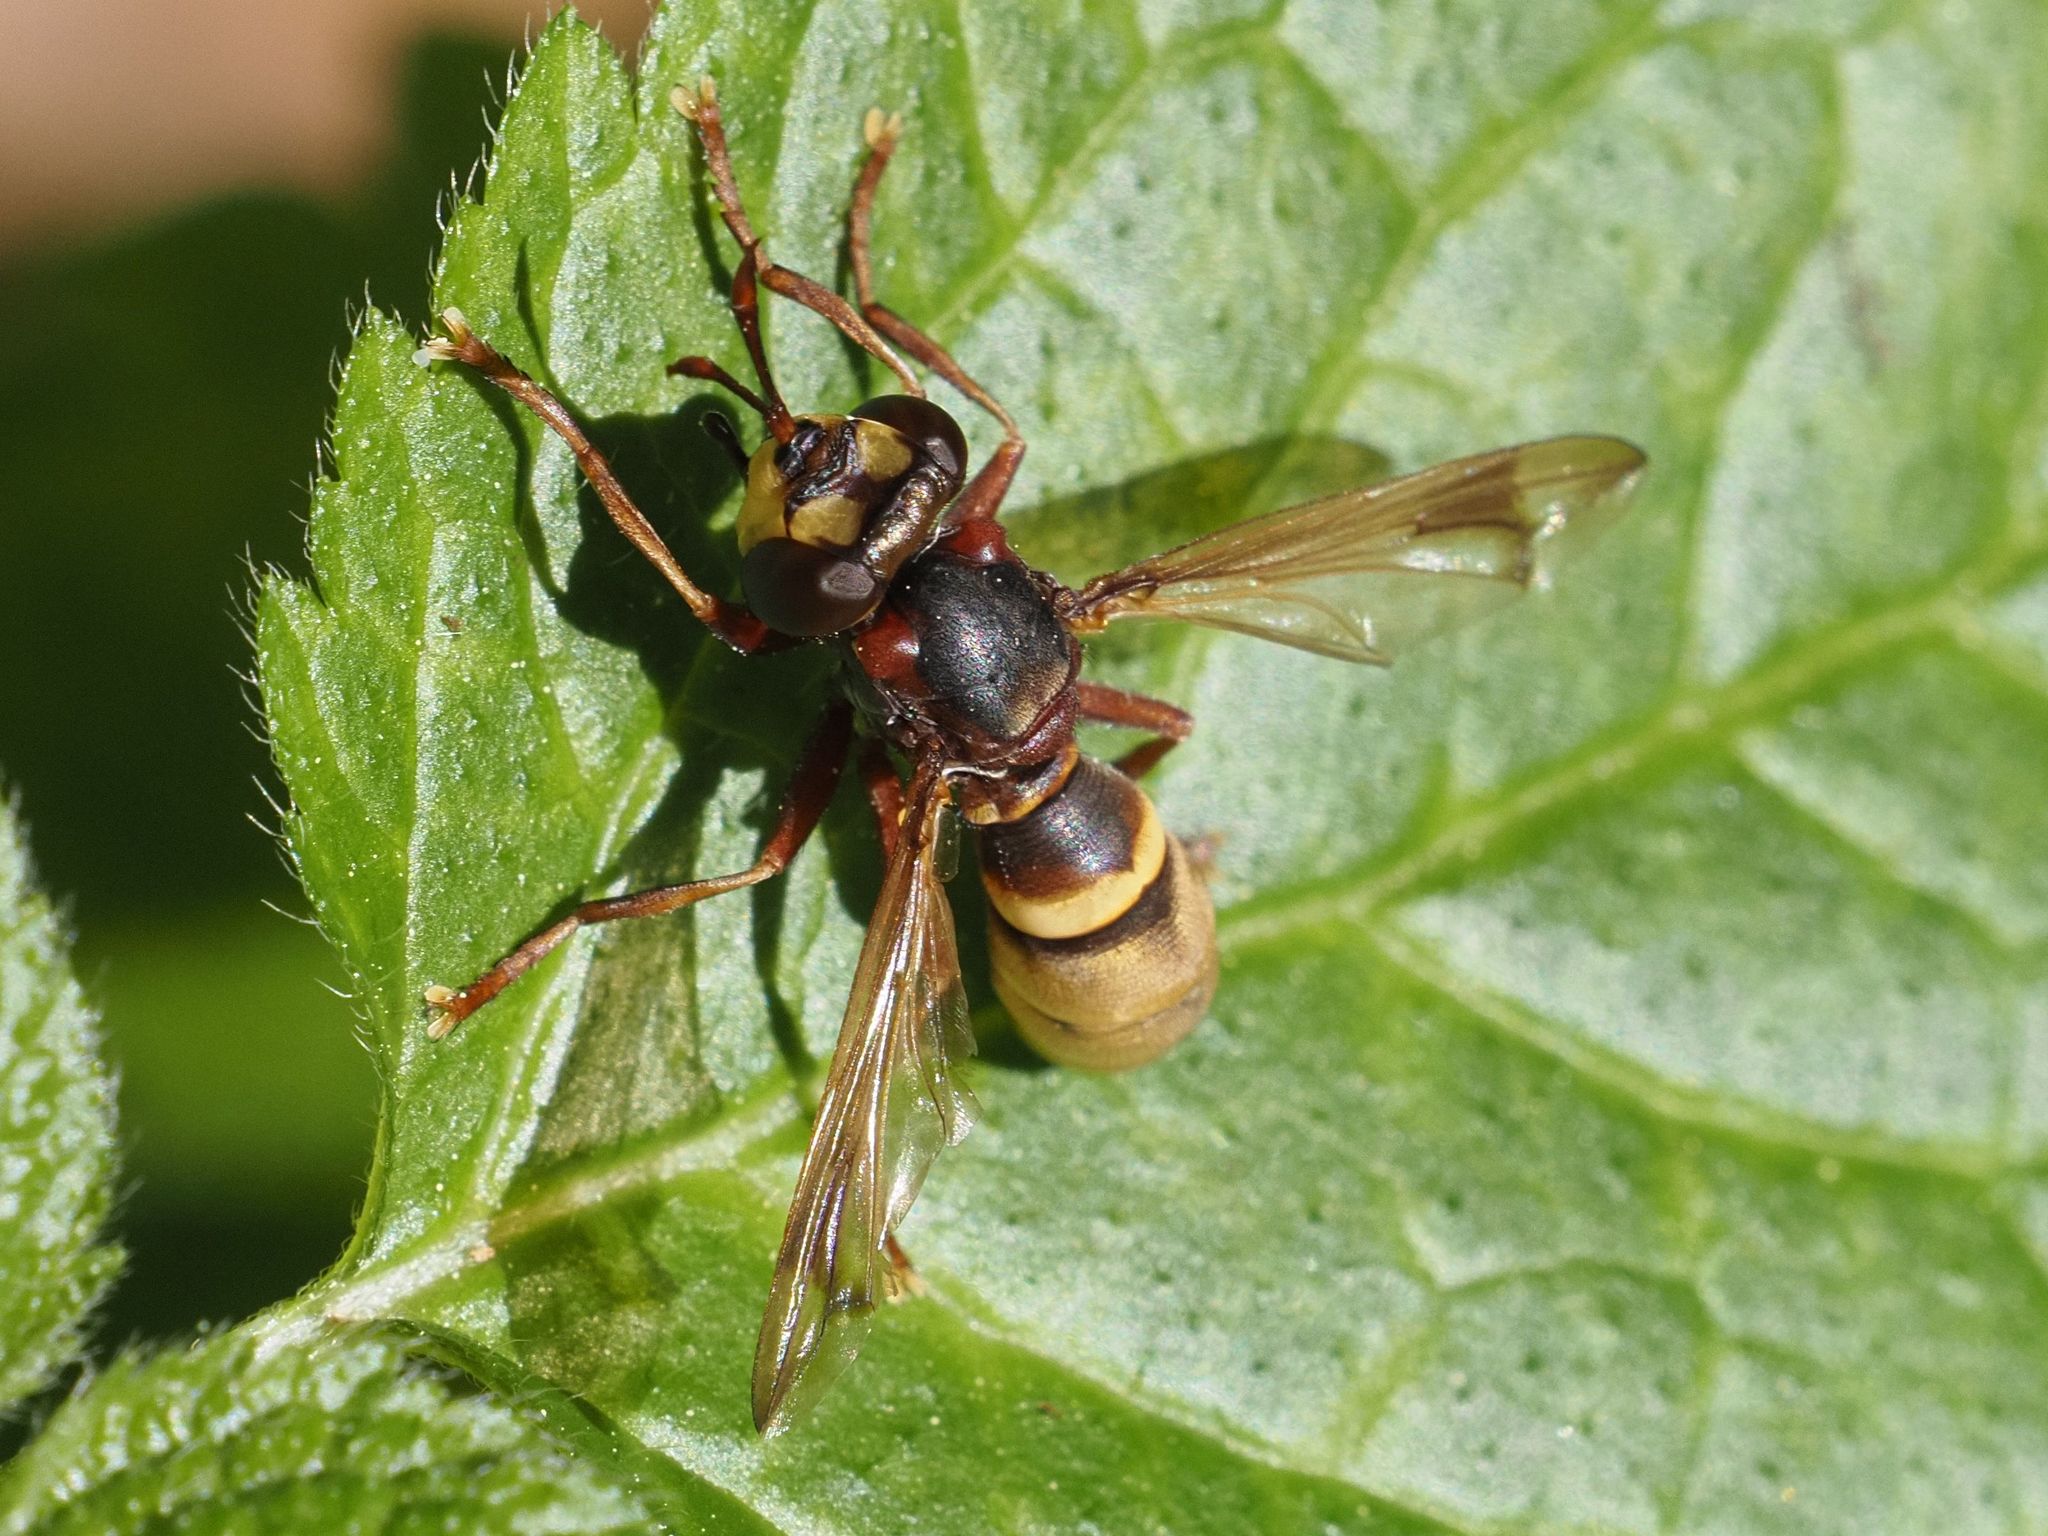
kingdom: Animalia
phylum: Arthropoda
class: Insecta
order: Diptera
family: Conopidae
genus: Conops
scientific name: Conops vesicularis
